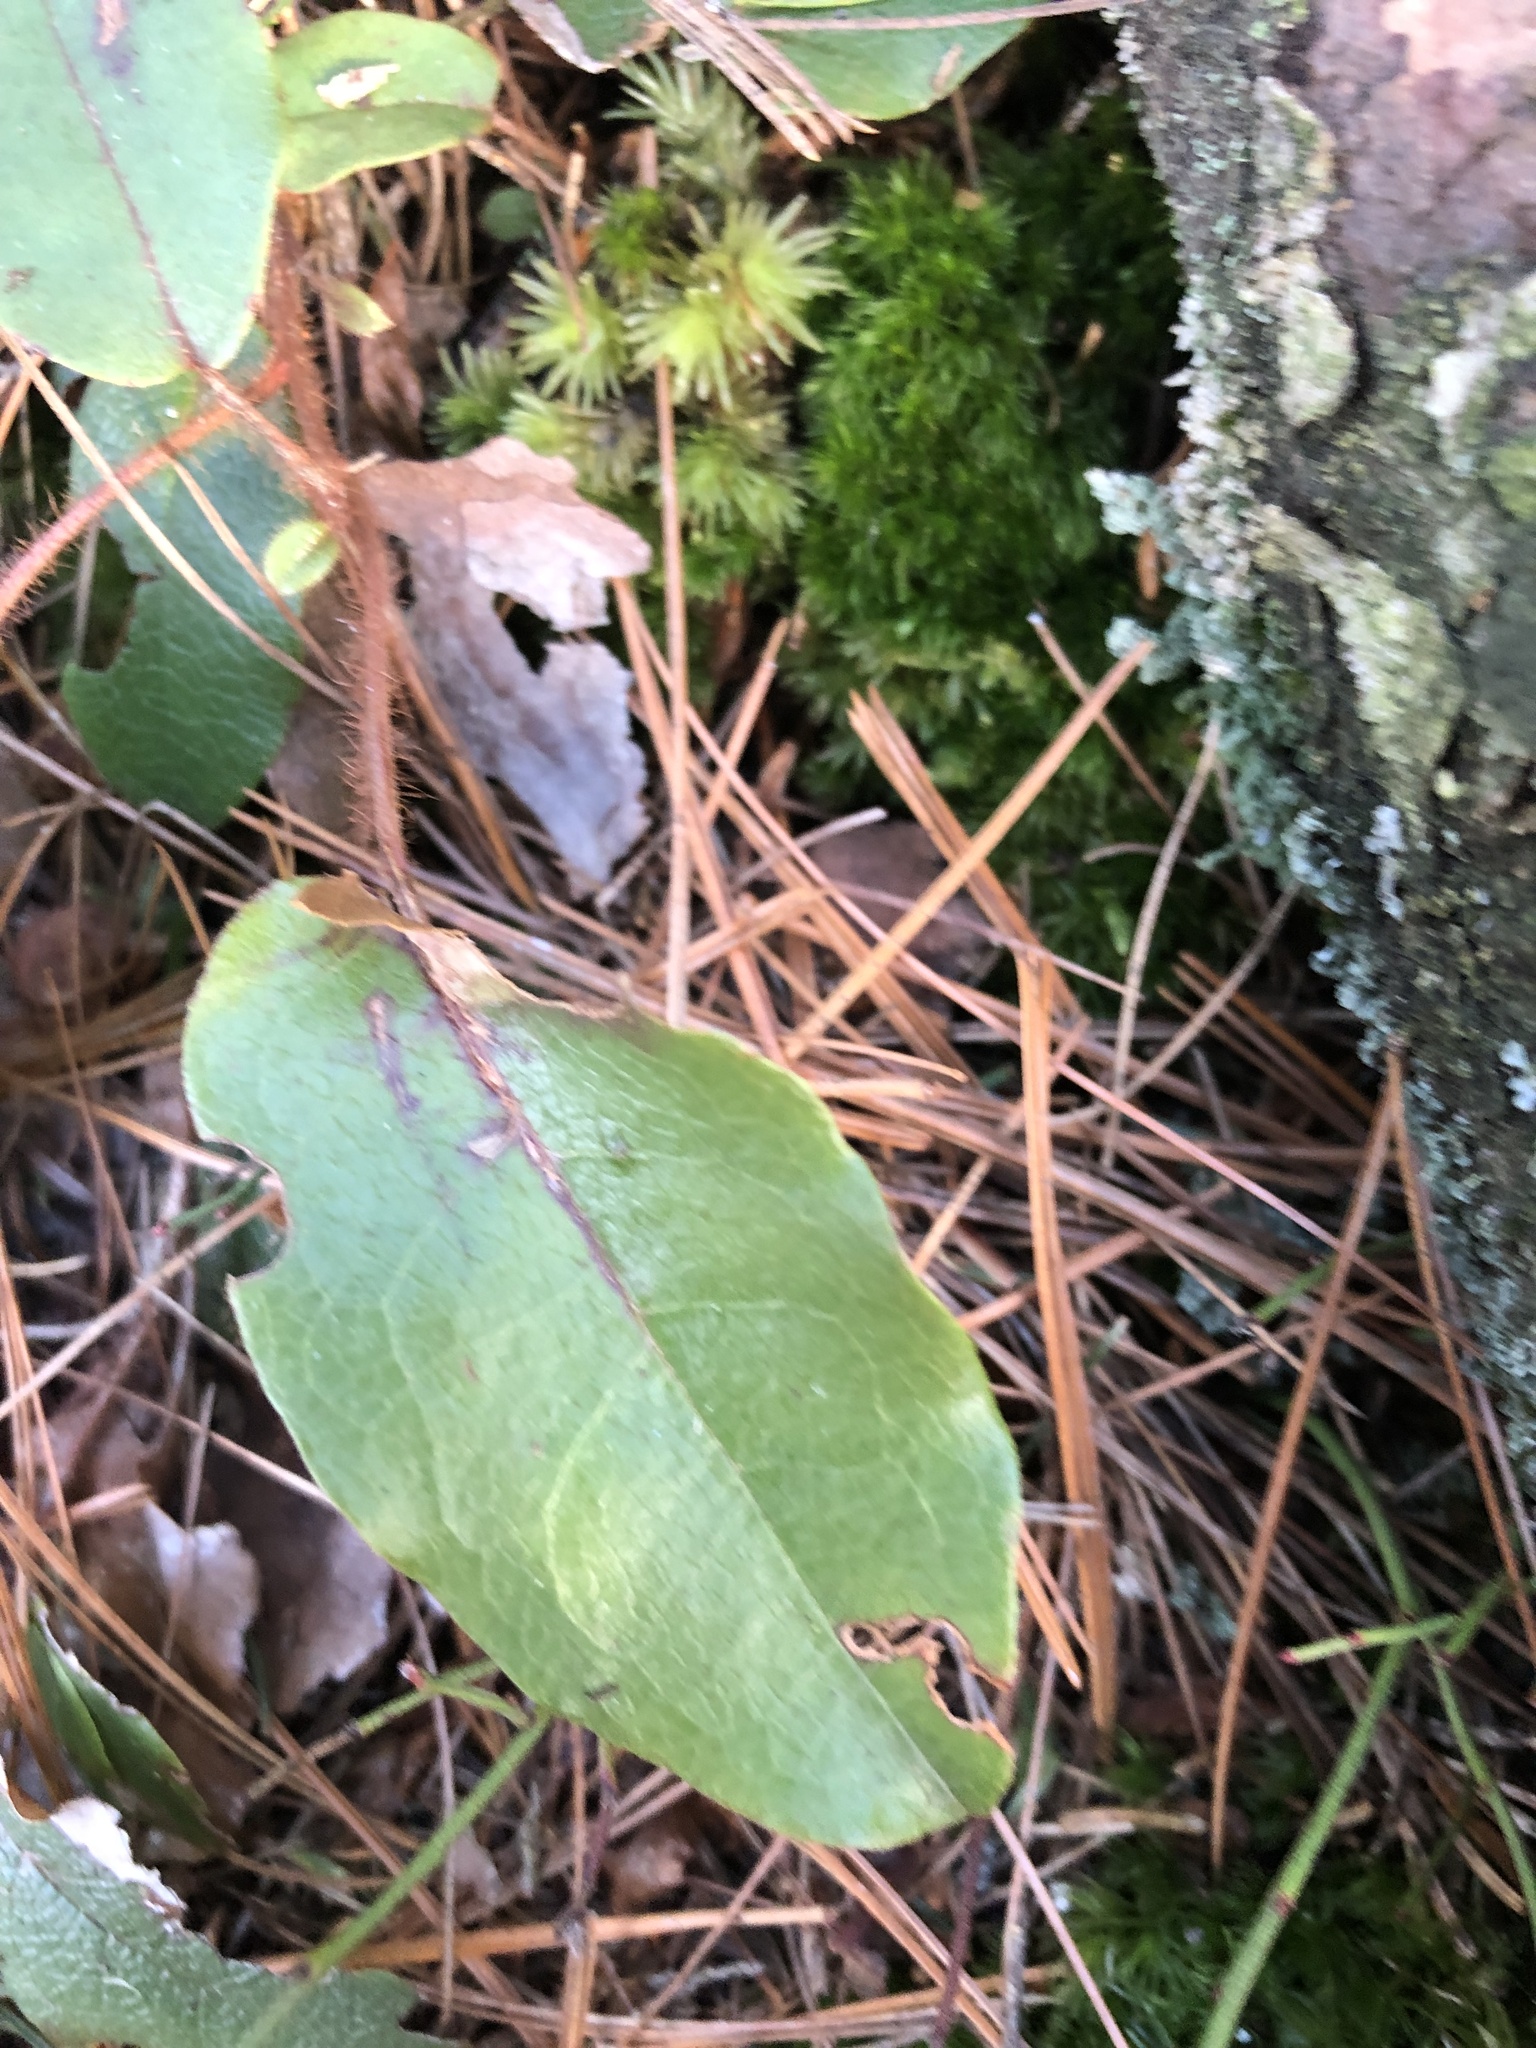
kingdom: Plantae
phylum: Tracheophyta
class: Magnoliopsida
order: Ericales
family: Ericaceae
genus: Epigaea
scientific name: Epigaea repens
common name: Gravelroot
